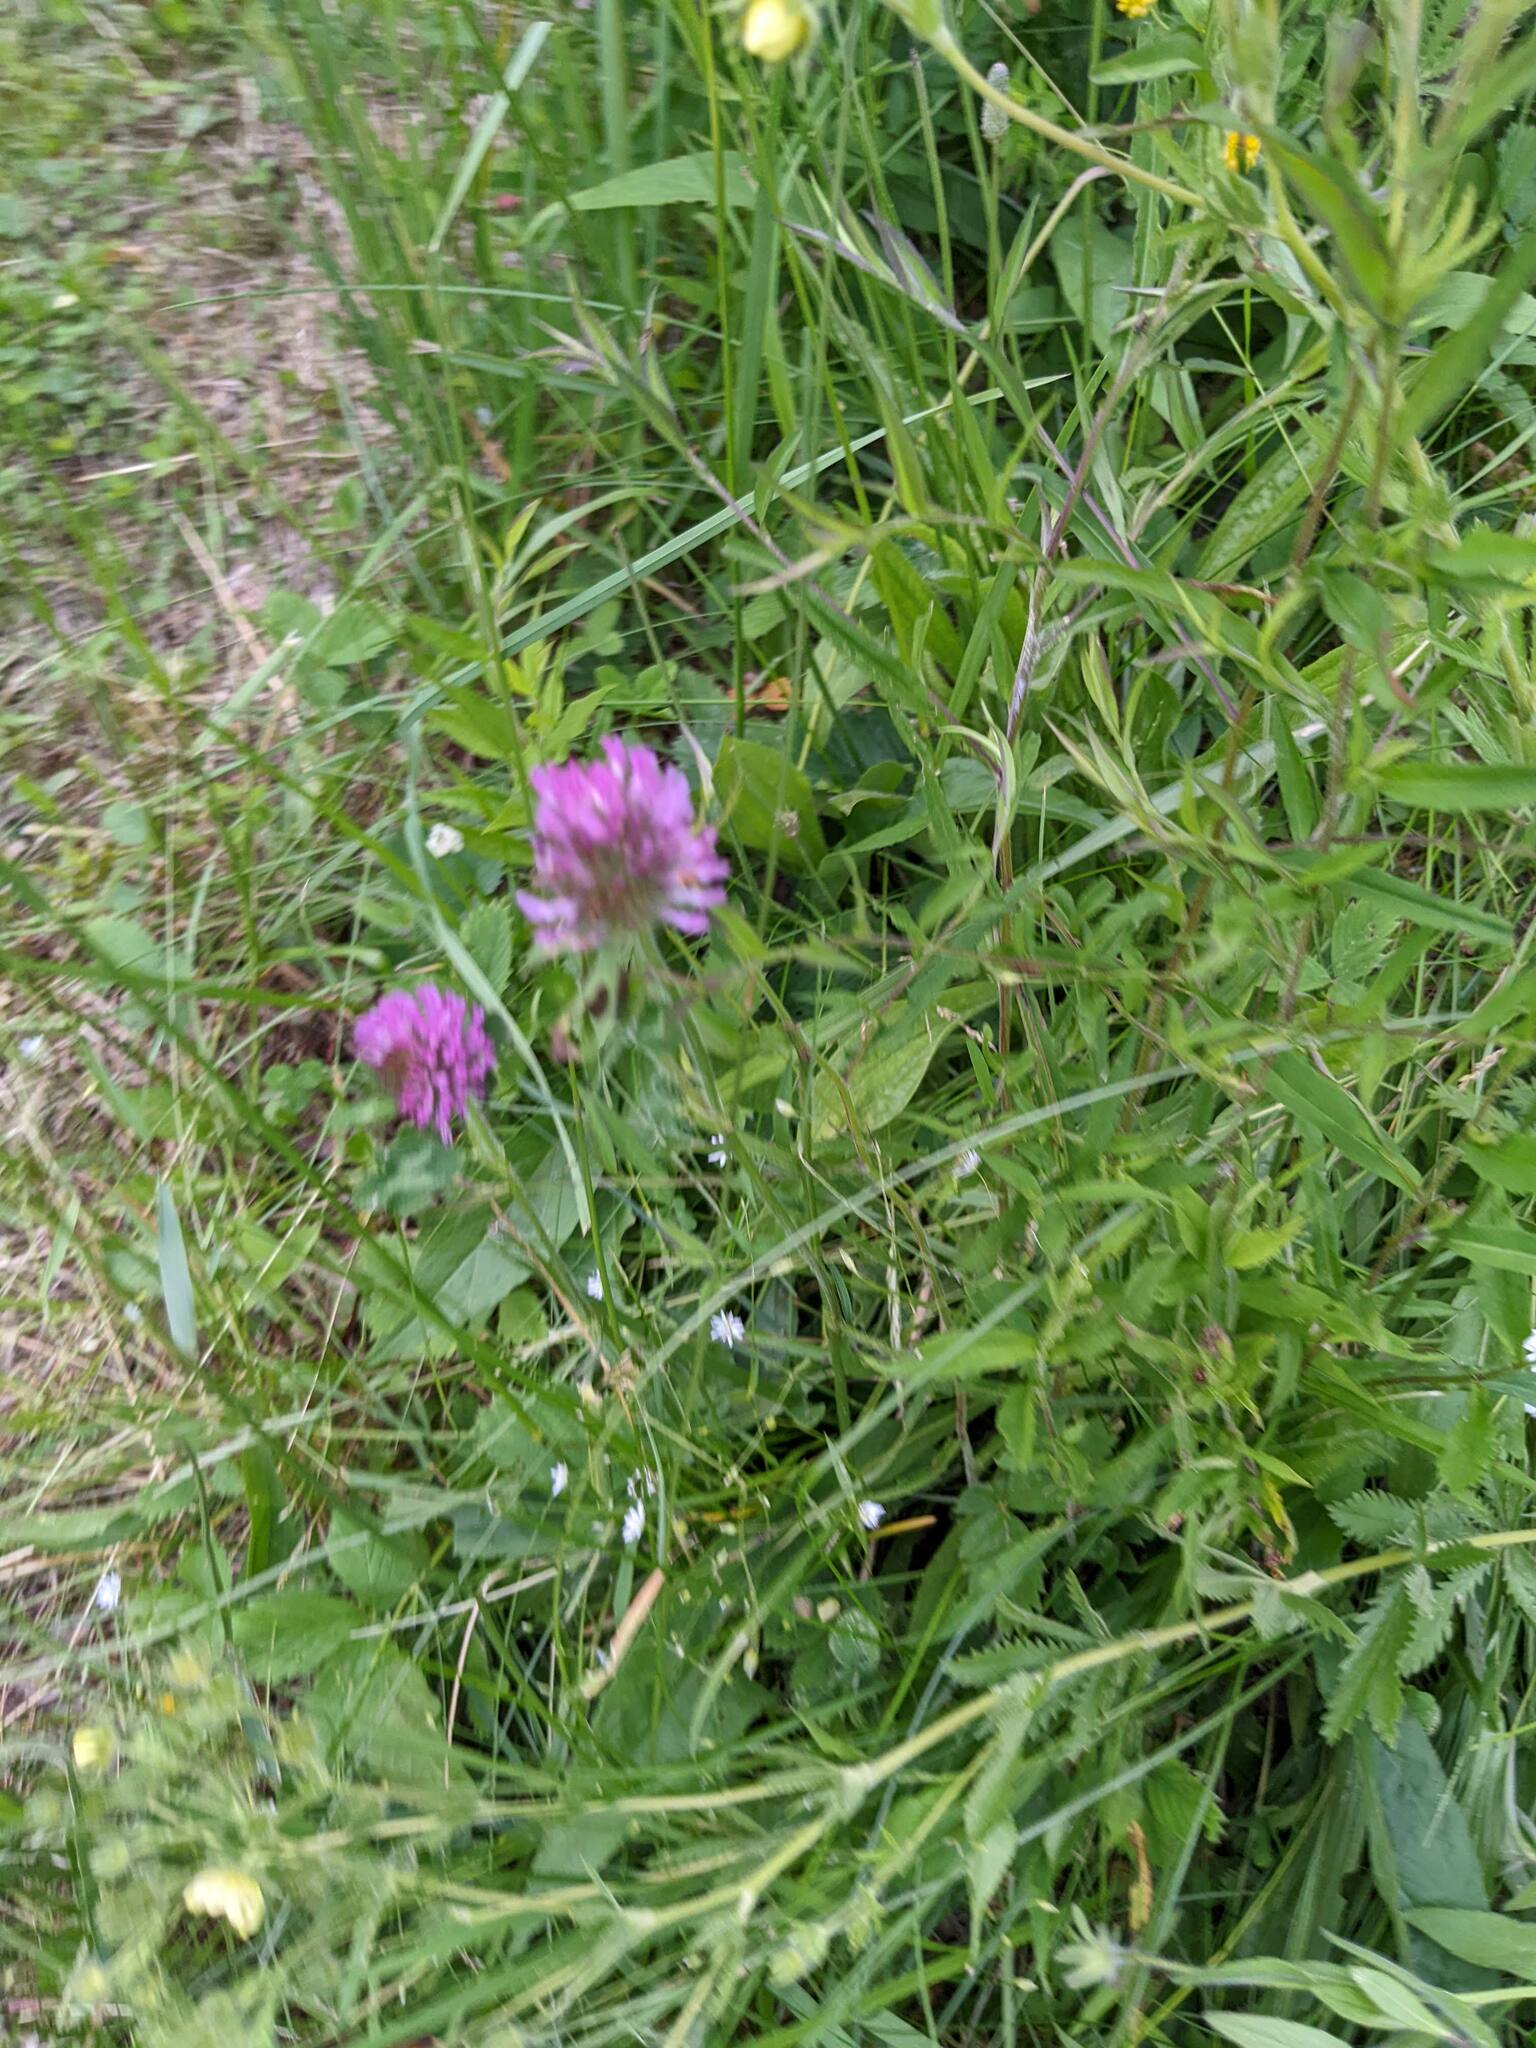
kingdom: Plantae
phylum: Tracheophyta
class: Magnoliopsida
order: Fabales
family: Fabaceae
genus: Trifolium
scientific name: Trifolium pratense
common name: Red clover
